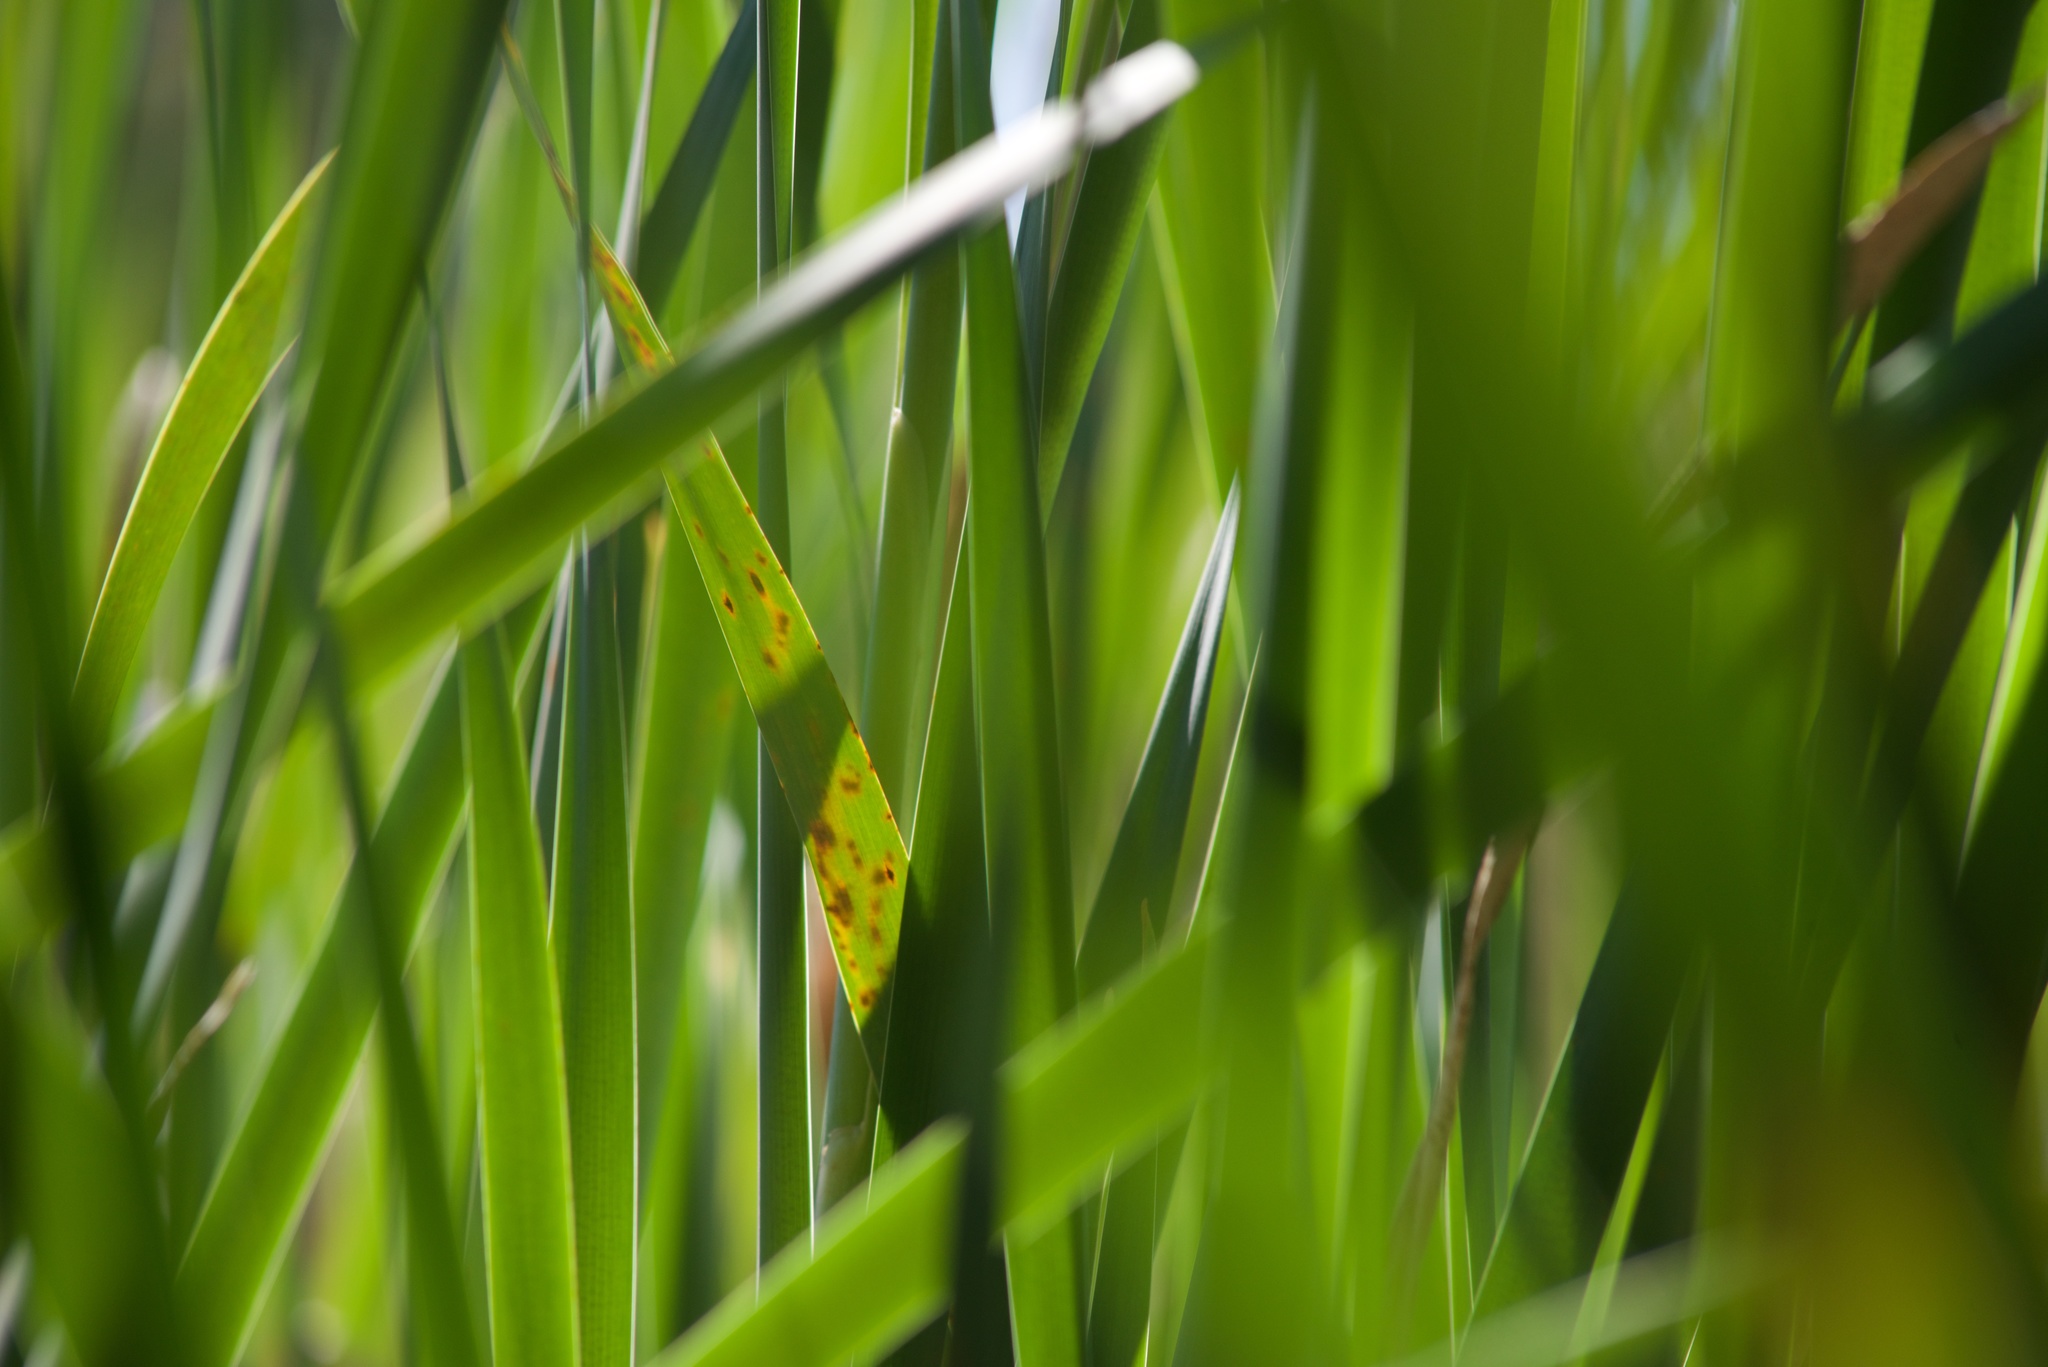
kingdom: Plantae
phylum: Tracheophyta
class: Liliopsida
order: Poales
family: Typhaceae
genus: Typha
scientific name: Typha orientalis
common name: Bullrush
